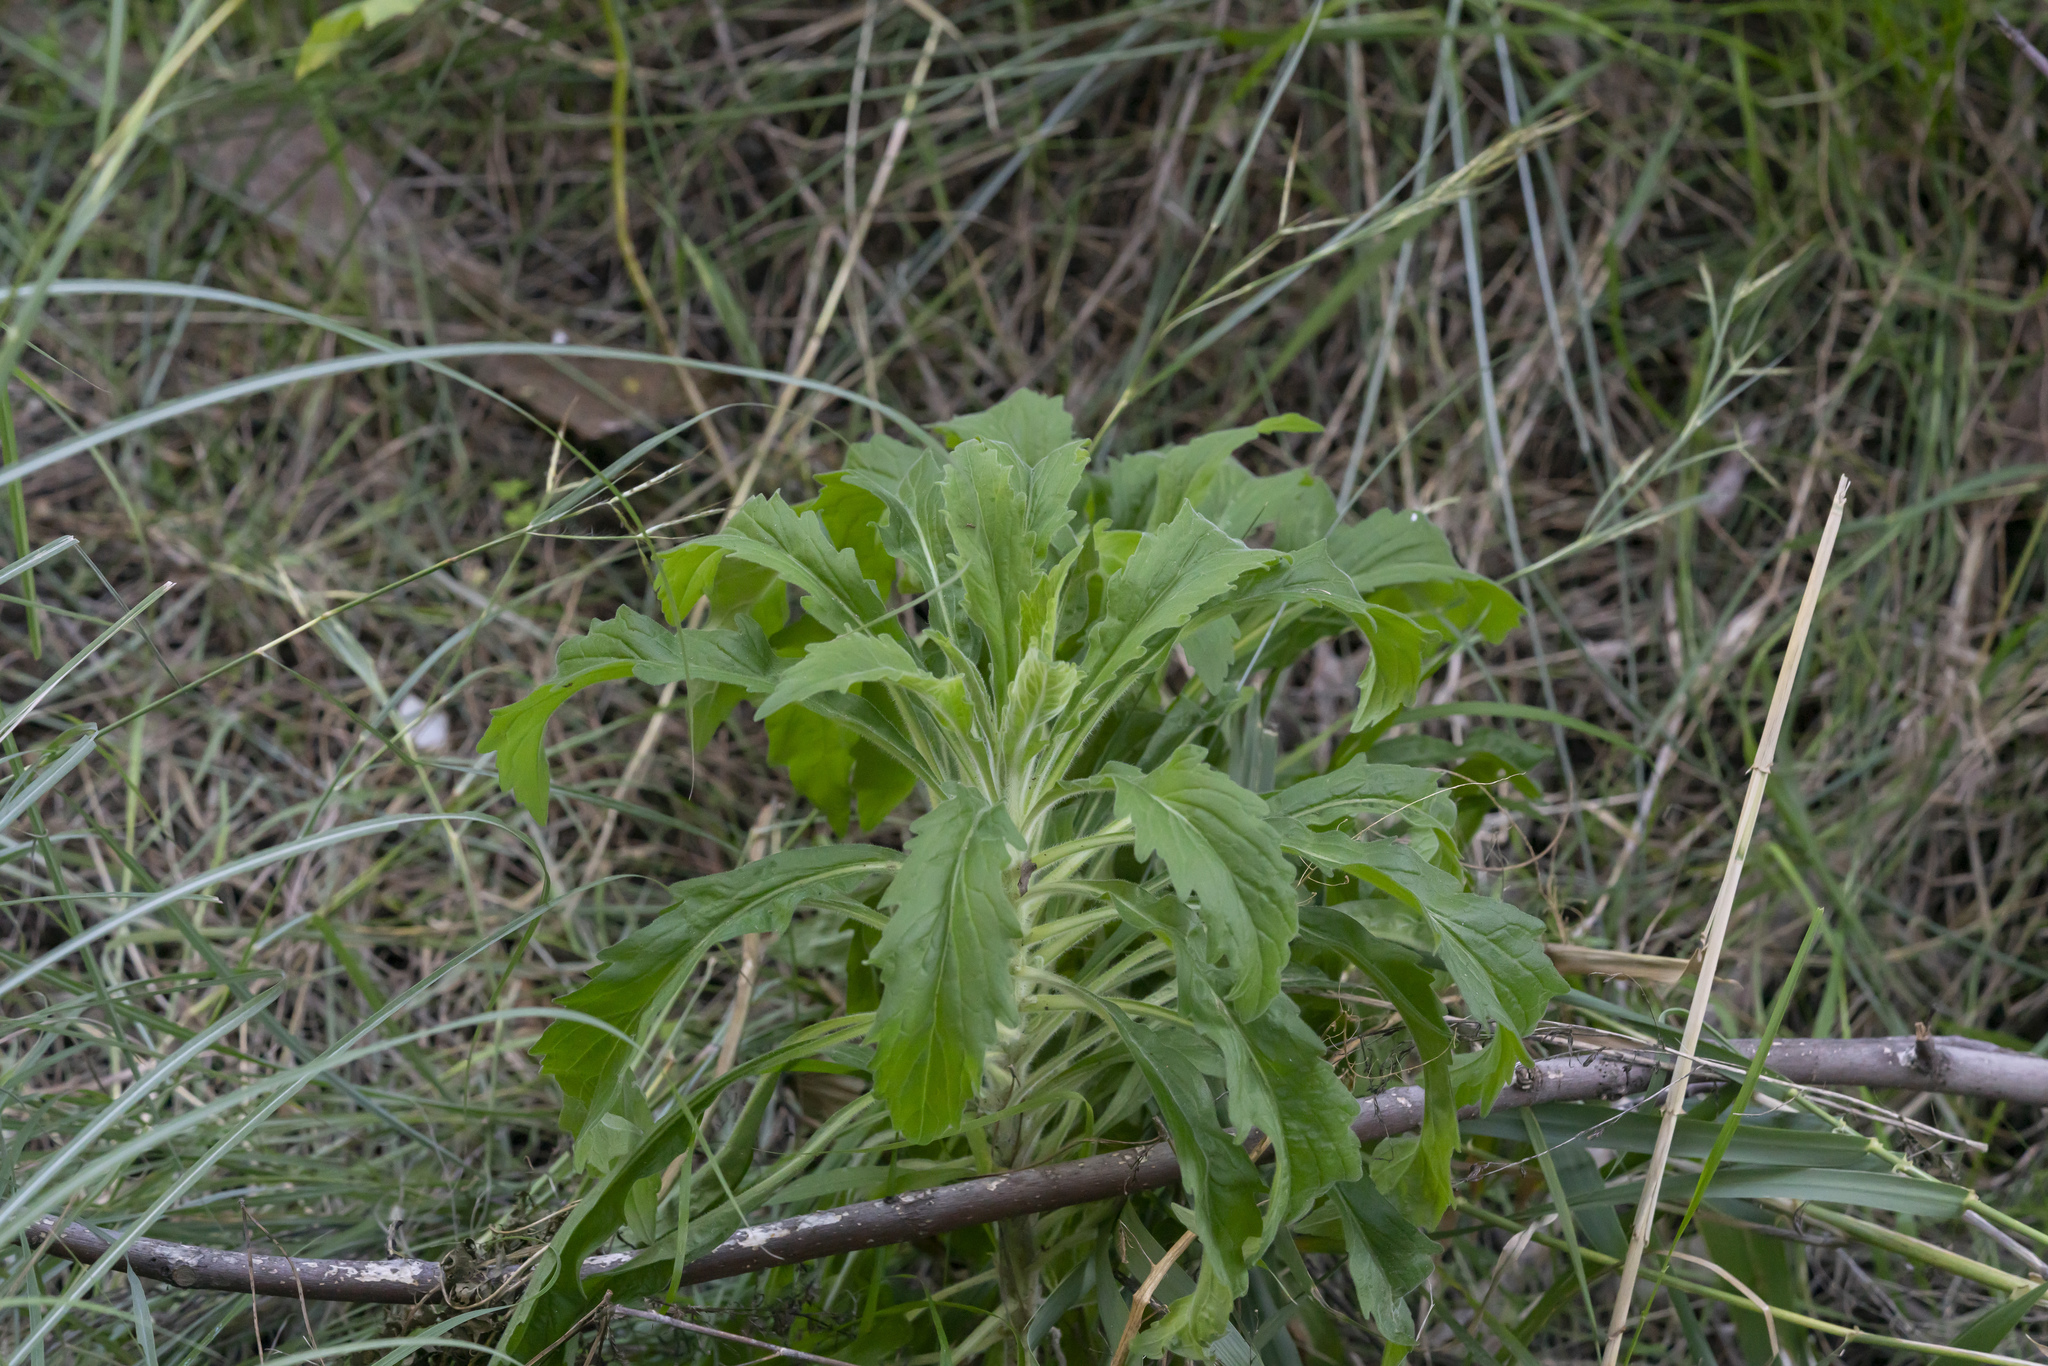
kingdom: Plantae
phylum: Tracheophyta
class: Magnoliopsida
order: Asterales
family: Asteraceae
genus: Erigeron
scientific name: Erigeron
